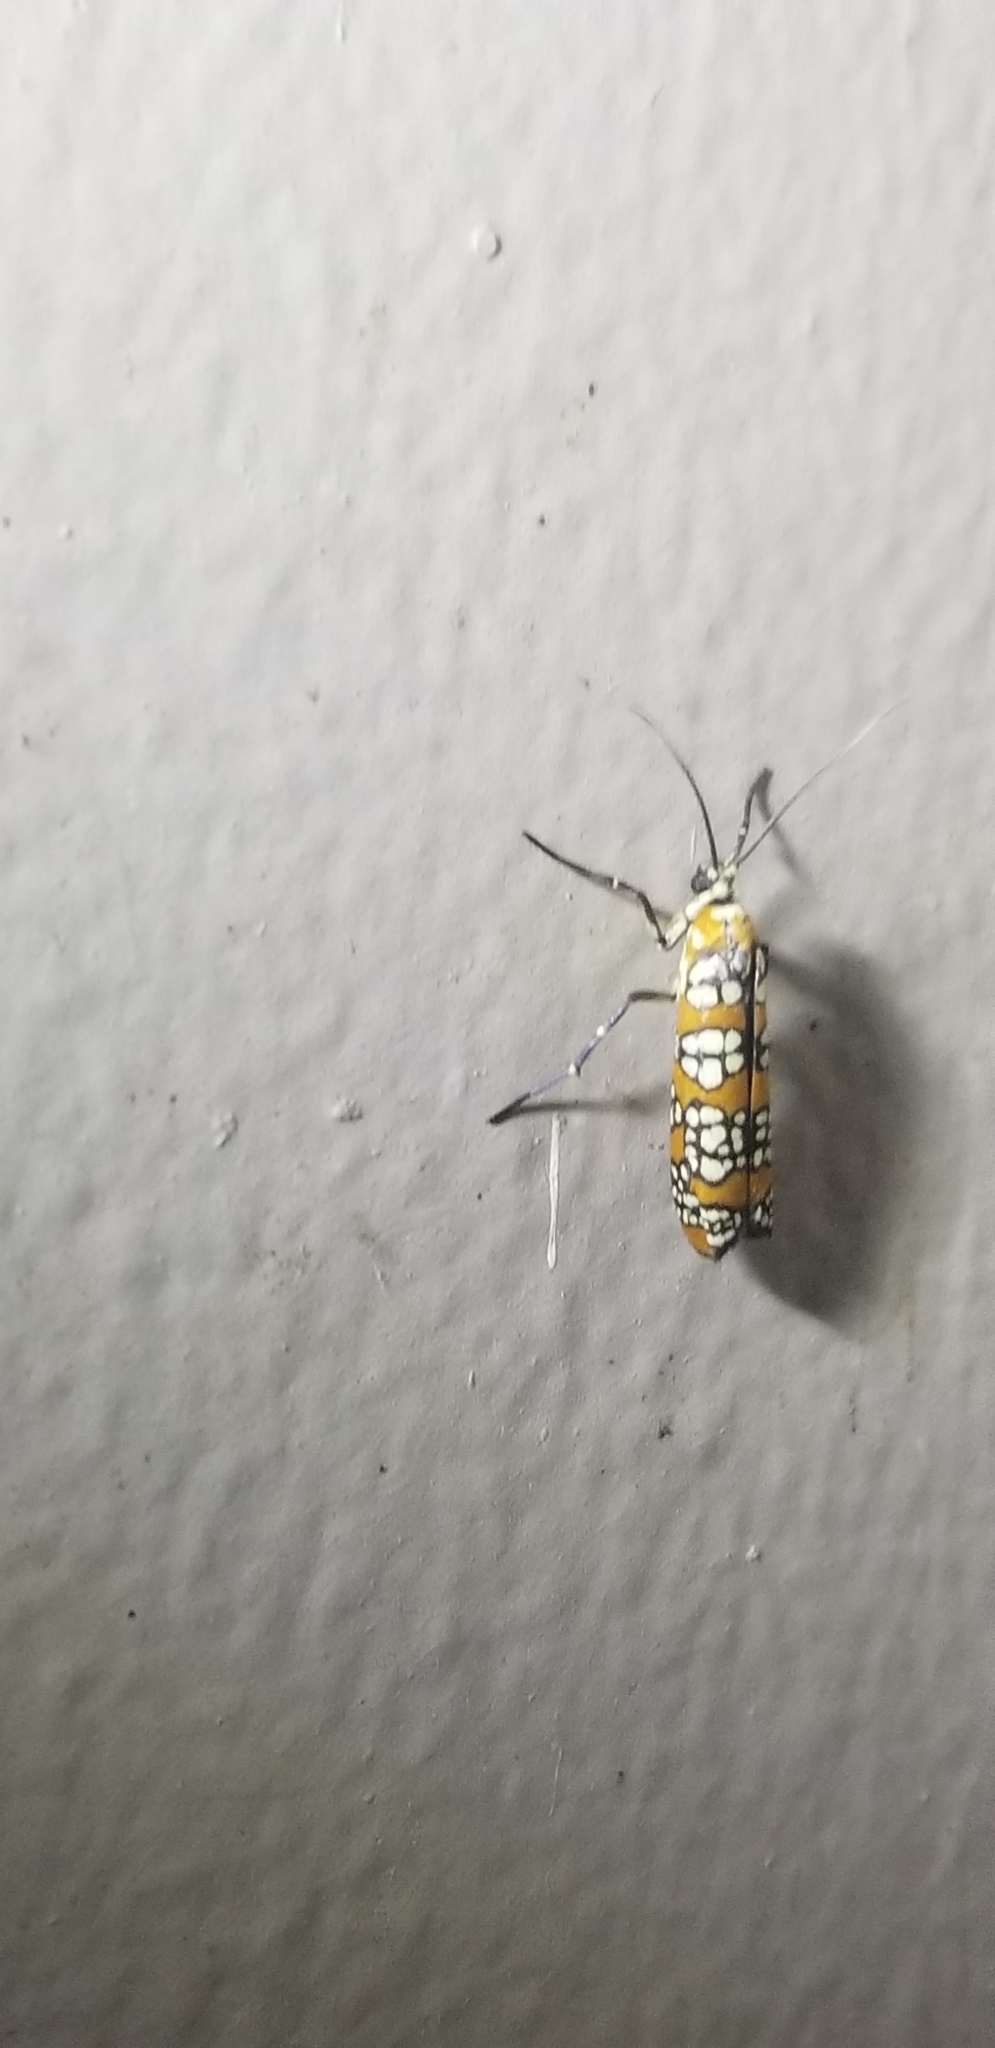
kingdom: Animalia
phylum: Arthropoda
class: Insecta
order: Lepidoptera
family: Attevidae
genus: Atteva
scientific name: Atteva punctella
